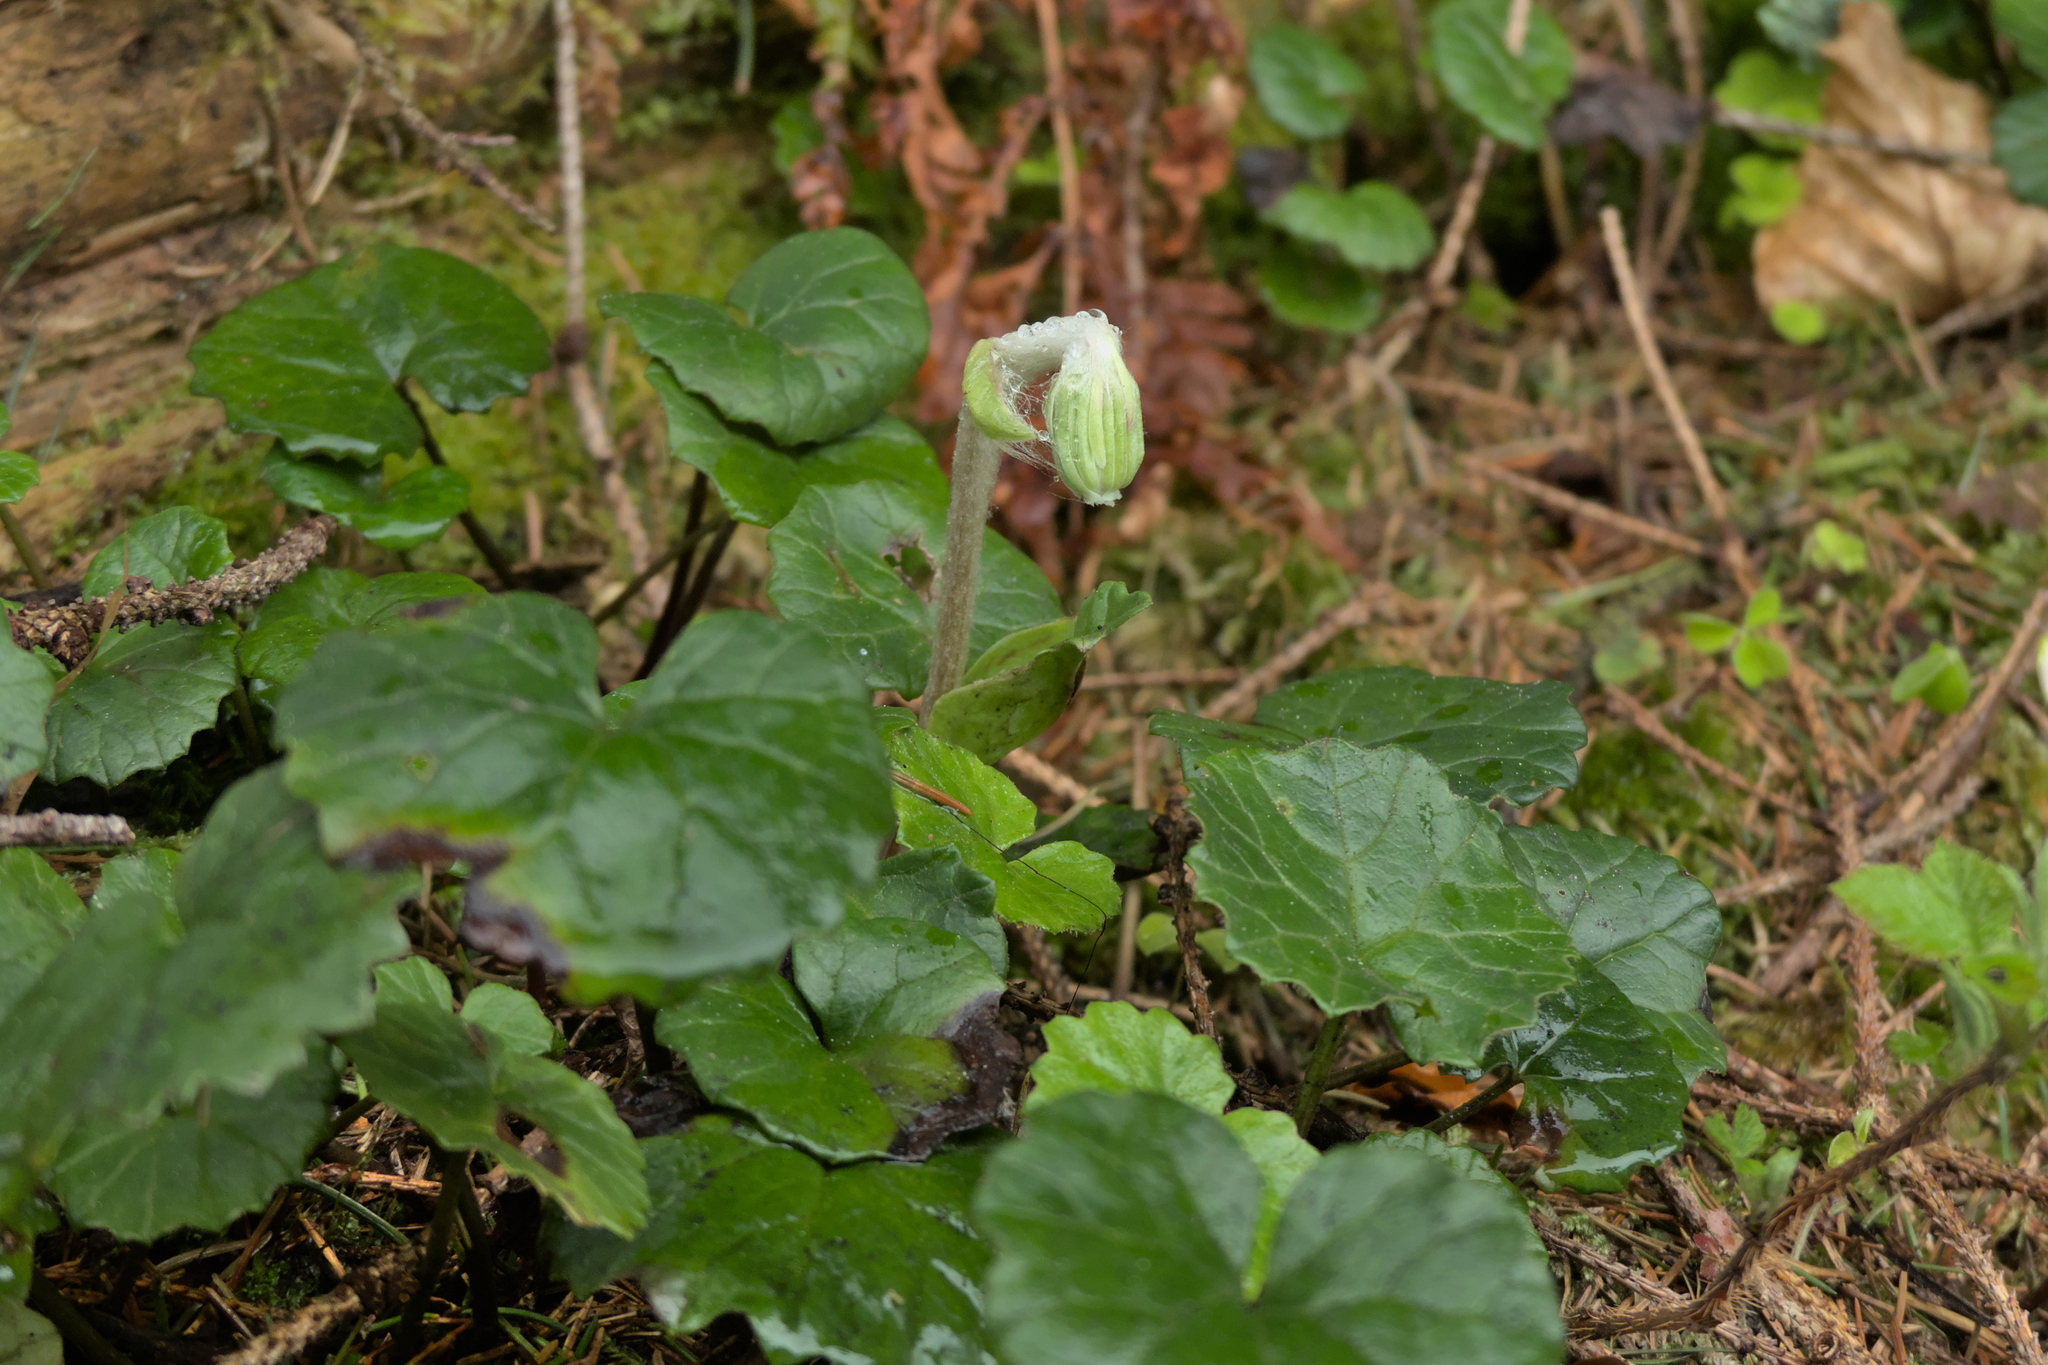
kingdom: Plantae
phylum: Tracheophyta
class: Magnoliopsida
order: Asterales
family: Asteraceae
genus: Homogyne
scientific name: Homogyne alpina
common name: Purple colt's-foot
